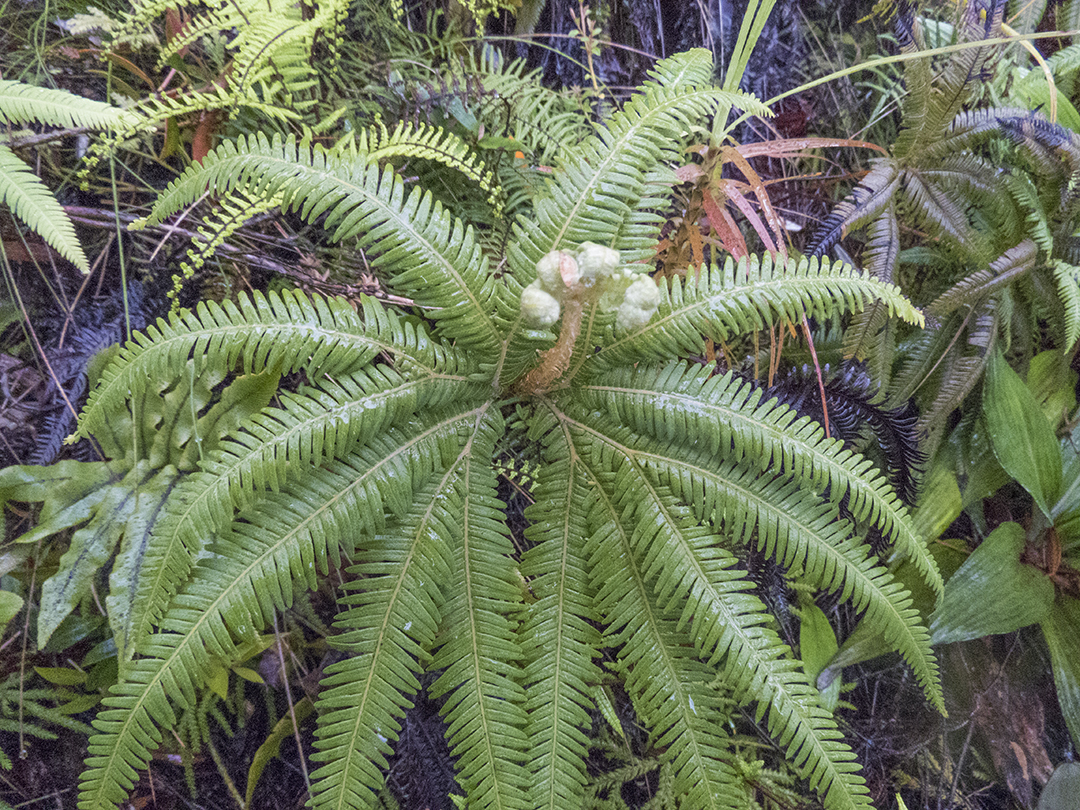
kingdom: Plantae
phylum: Tracheophyta
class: Polypodiopsida
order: Gleicheniales
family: Gleicheniaceae
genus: Sticherus
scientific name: Sticherus cunninghamii
